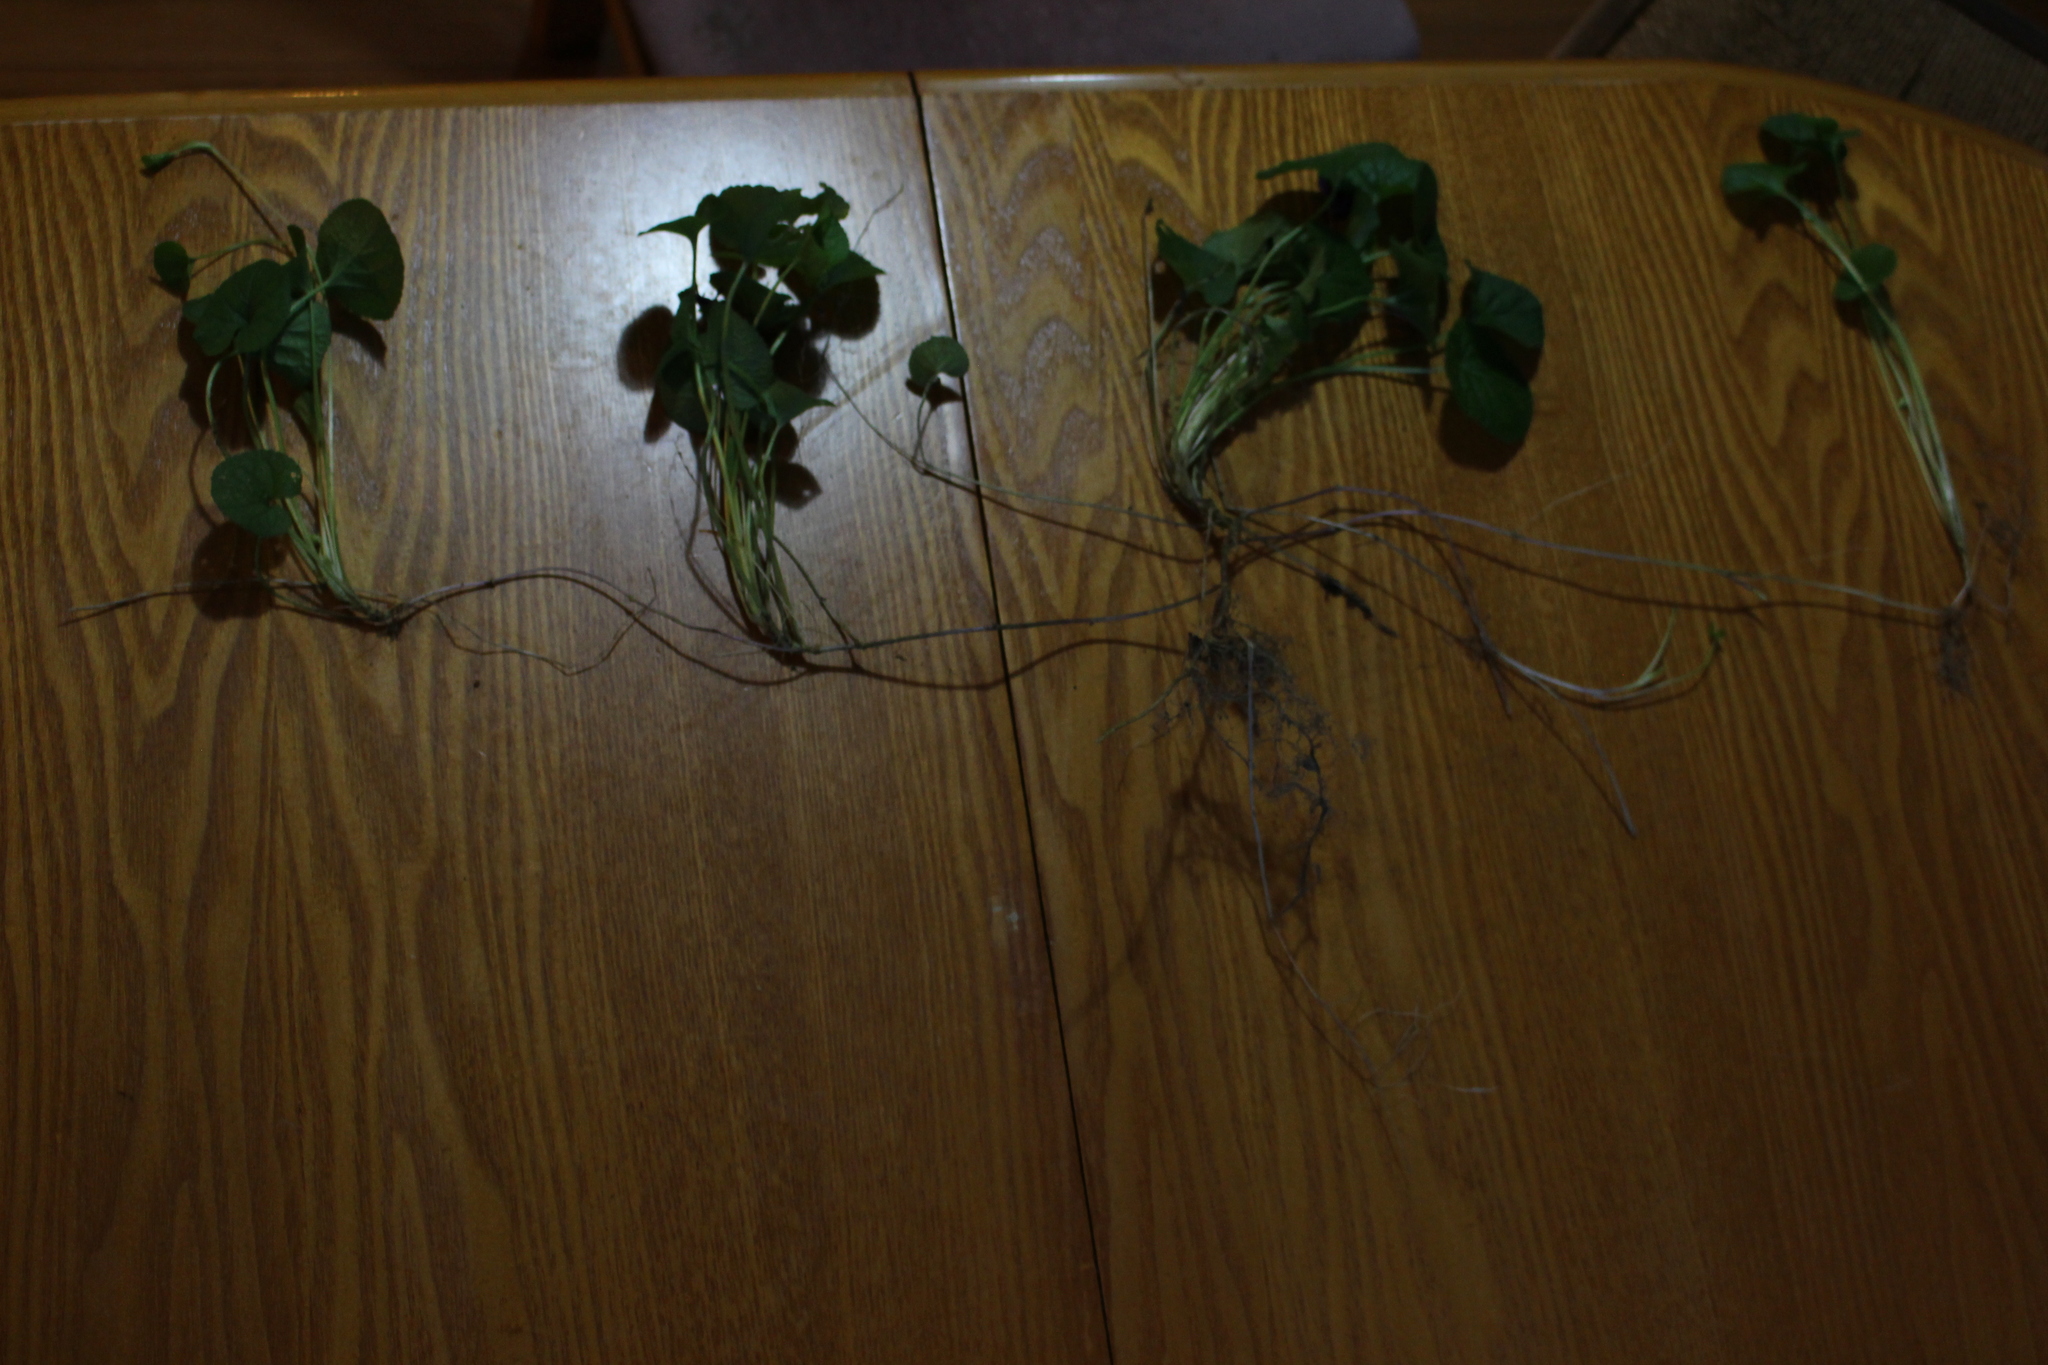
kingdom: Plantae
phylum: Tracheophyta
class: Magnoliopsida
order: Malpighiales
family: Violaceae
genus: Viola
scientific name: Viola odorata
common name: Sweet violet
